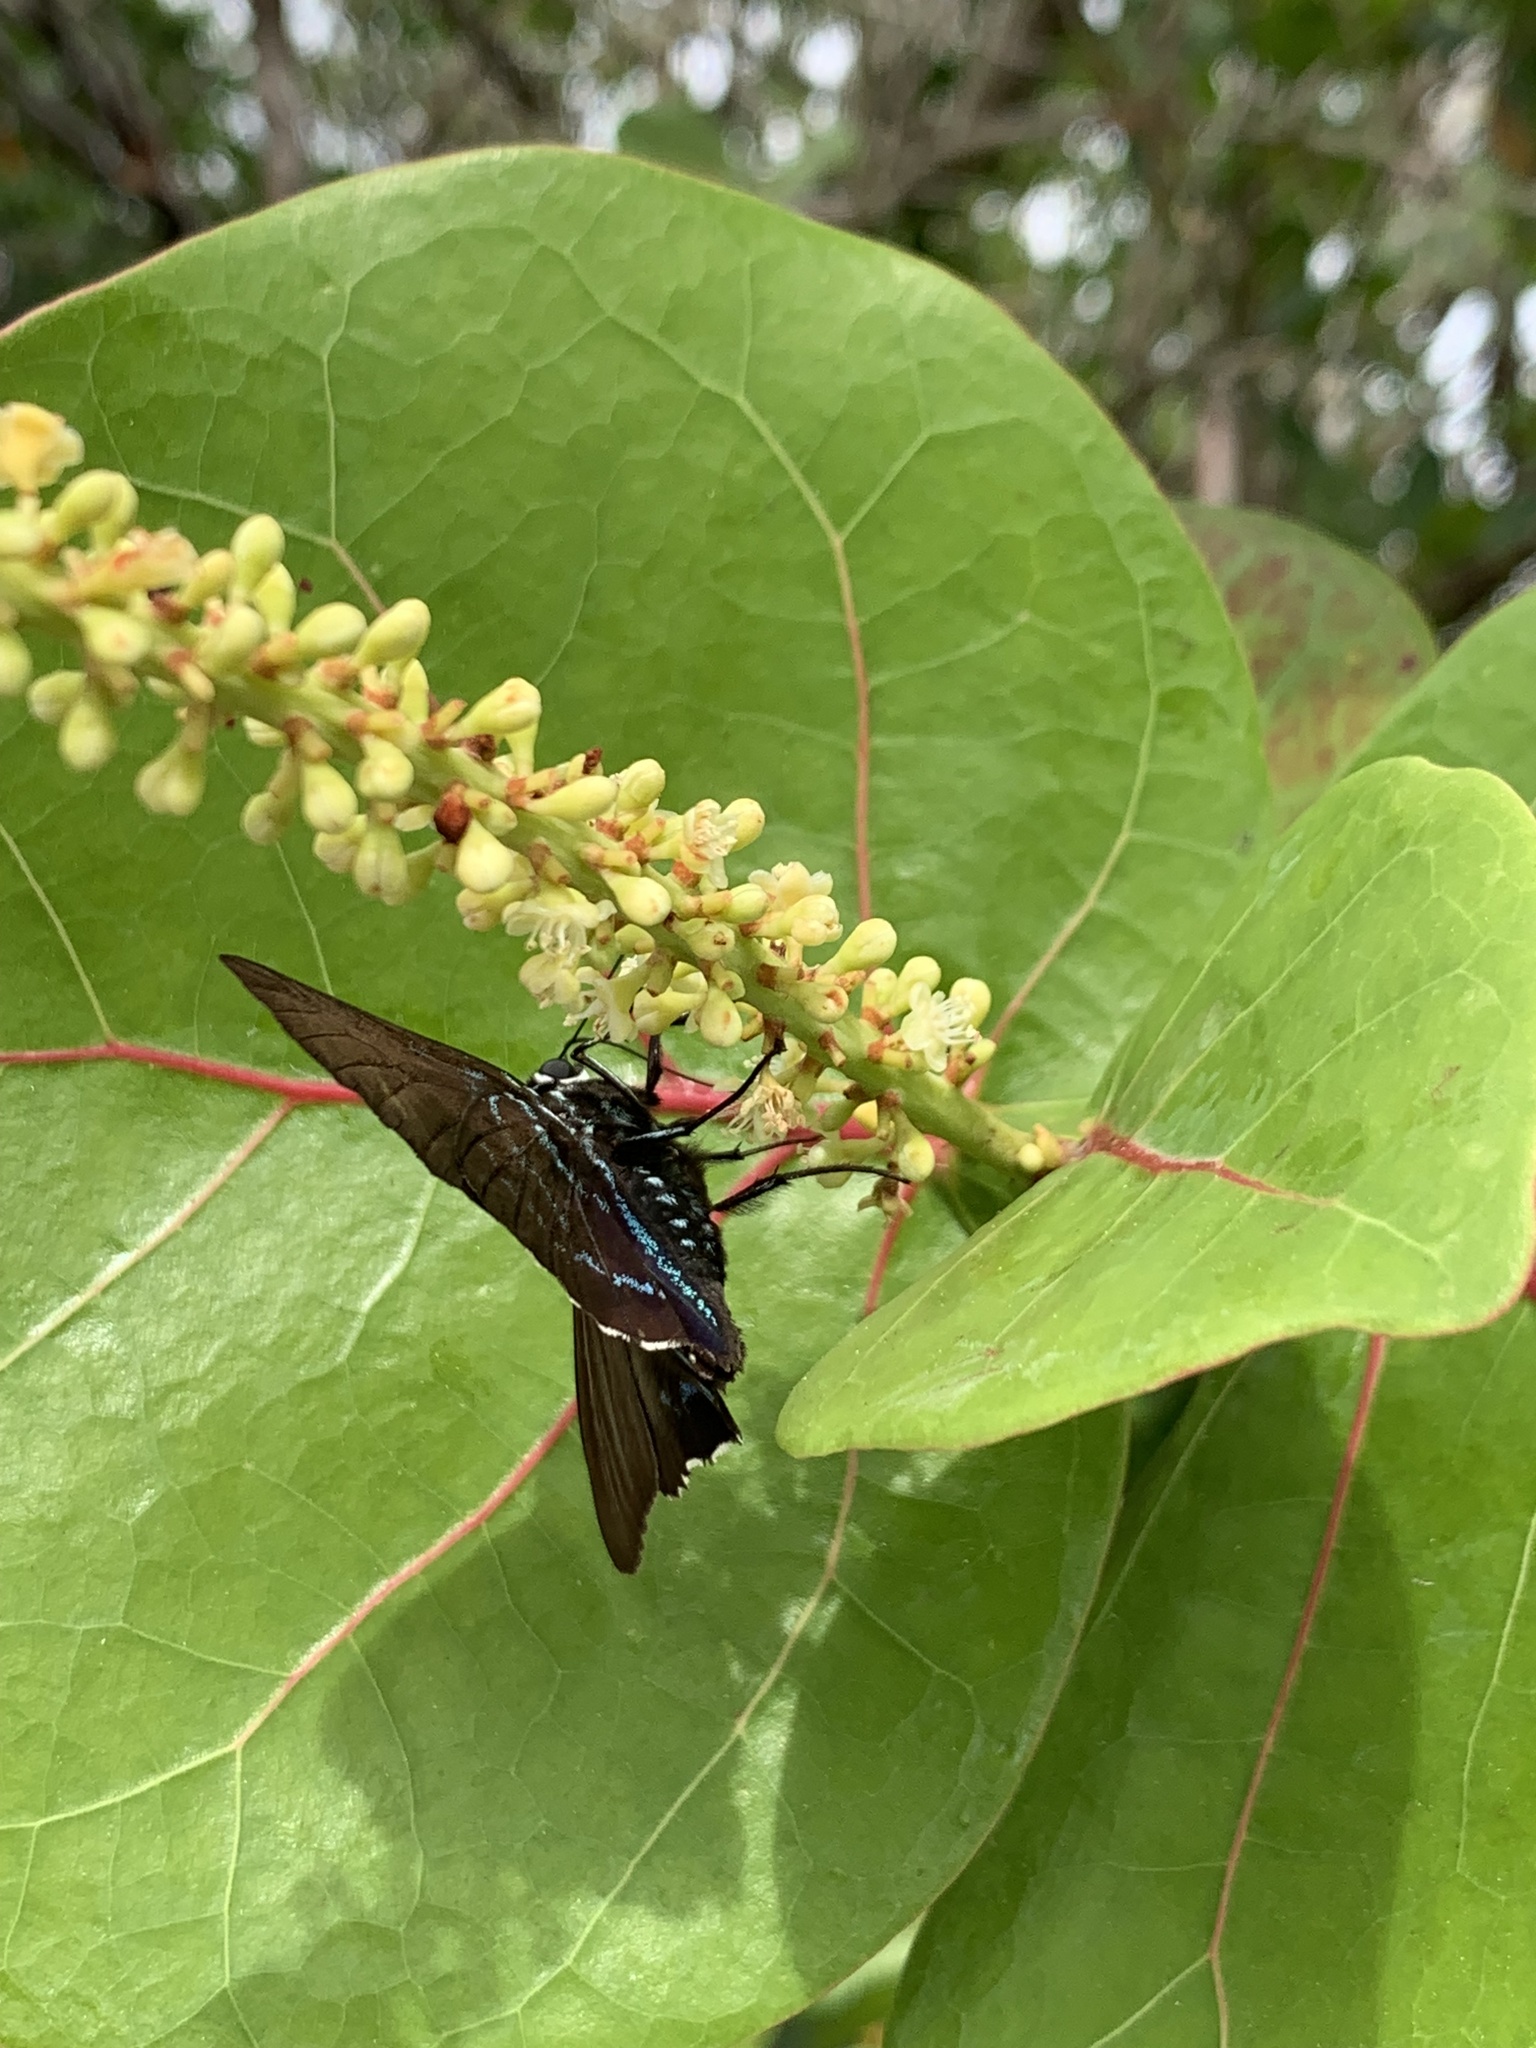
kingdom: Animalia
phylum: Arthropoda
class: Insecta
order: Lepidoptera
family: Hesperiidae
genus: Phocides
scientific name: Phocides pigmalion
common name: Mangrove skipper
